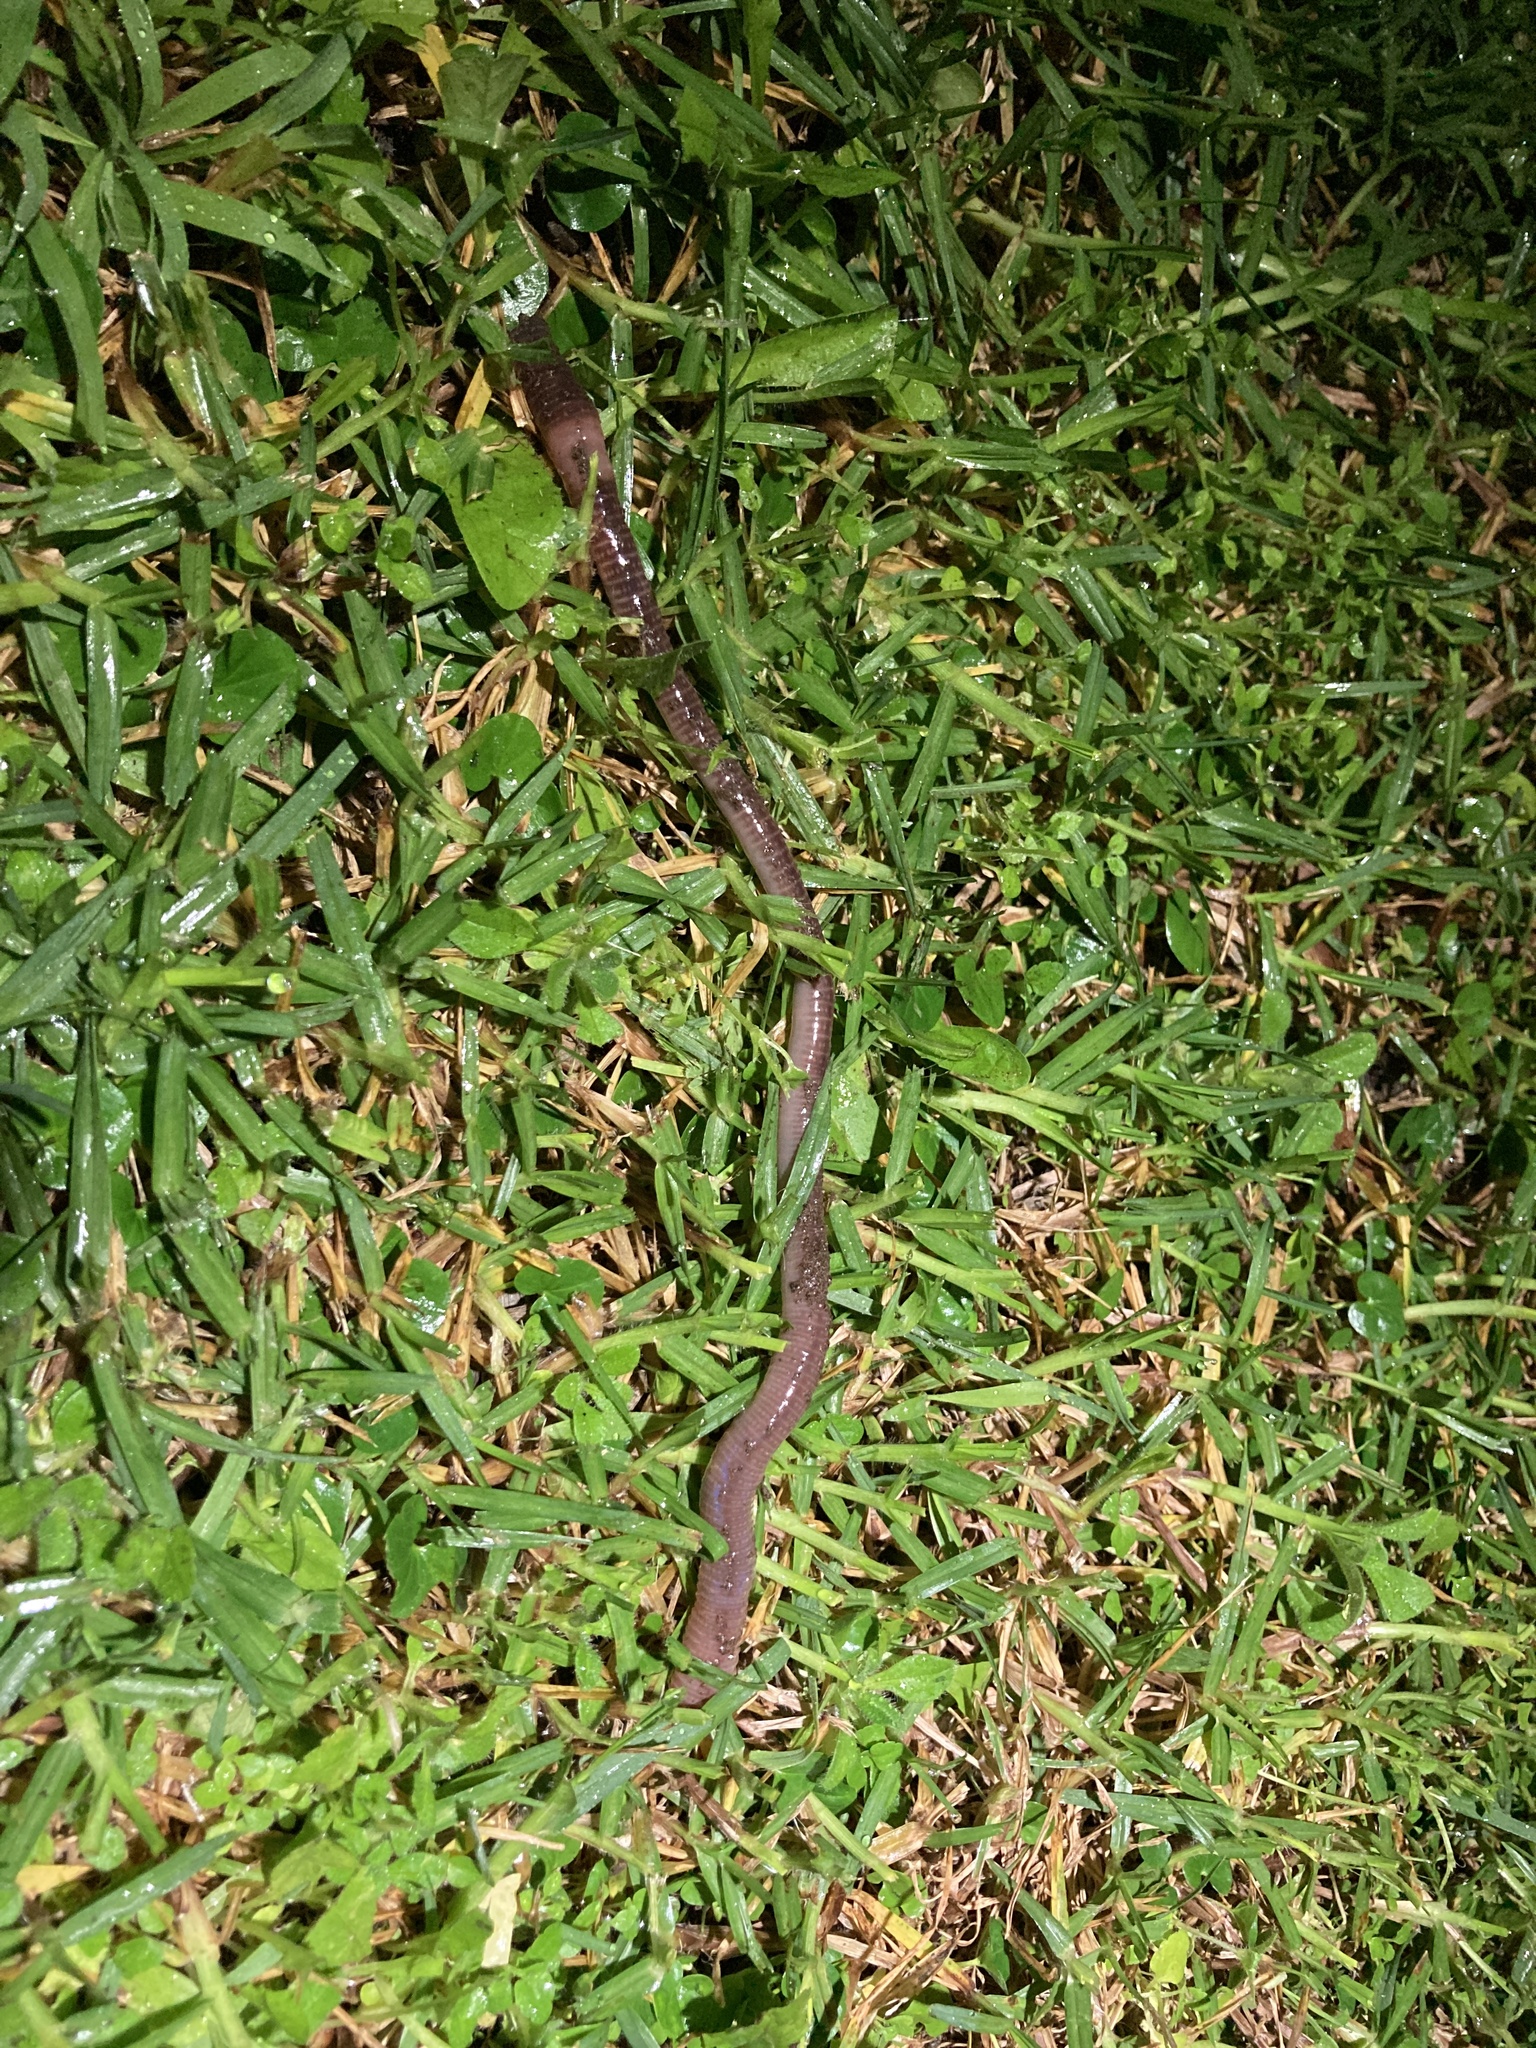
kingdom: Animalia
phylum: Annelida
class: Clitellata
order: Crassiclitellata
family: Lumbricidae
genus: Lumbricus
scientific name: Lumbricus terrestris
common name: Common earthworm
